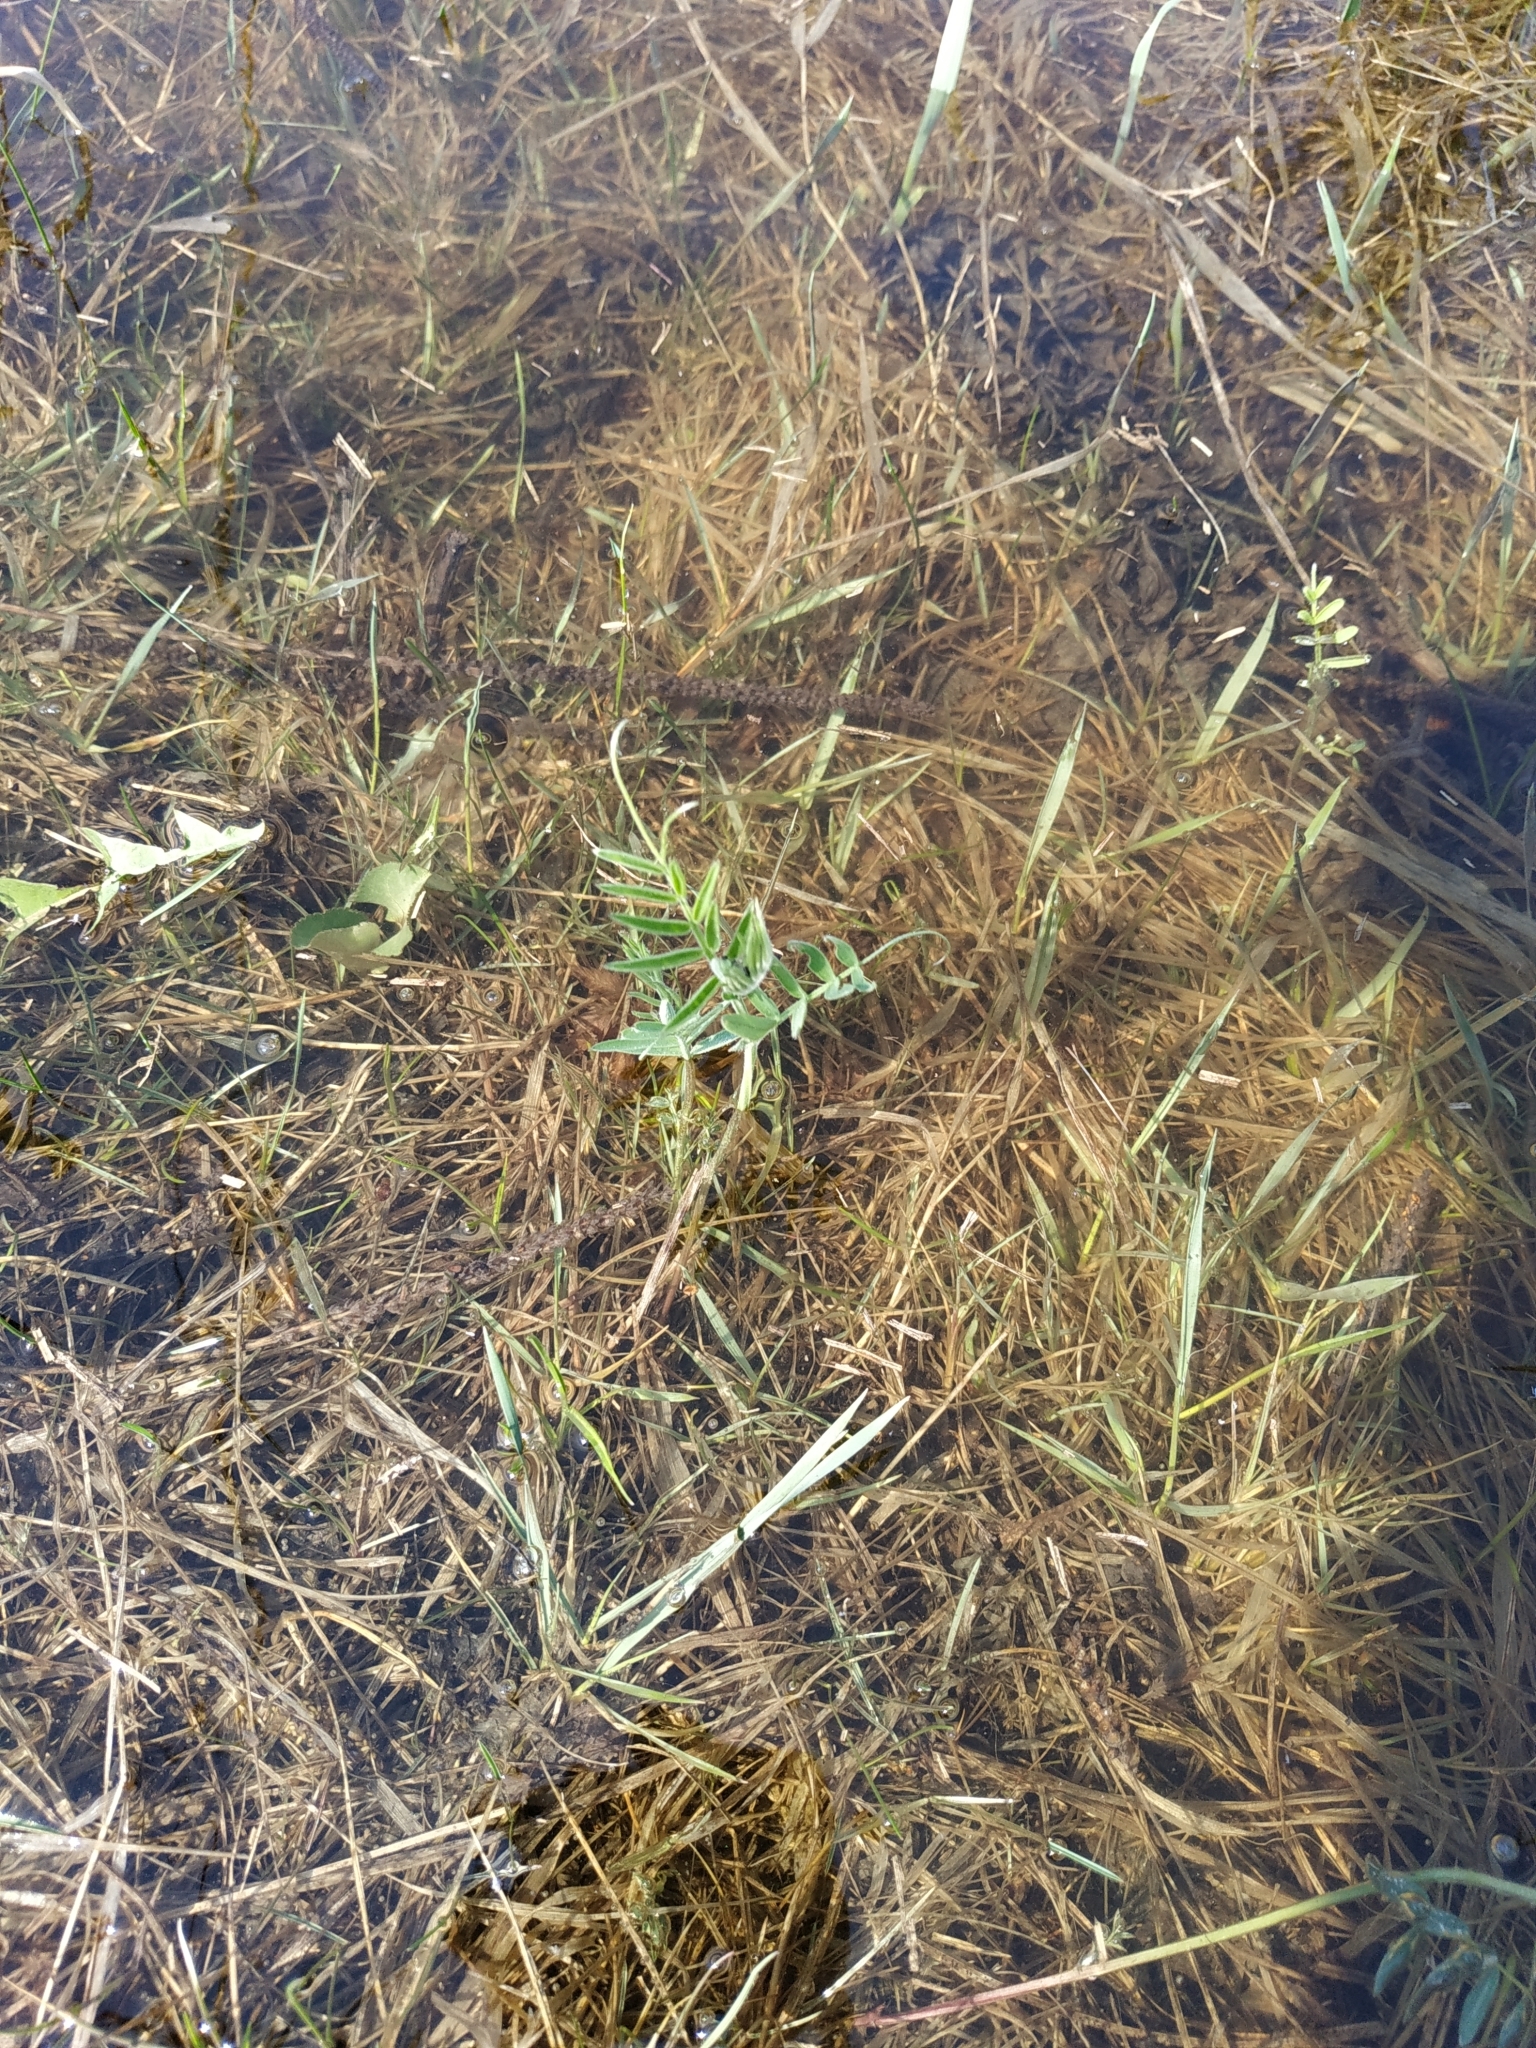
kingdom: Plantae
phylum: Tracheophyta
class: Magnoliopsida
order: Fabales
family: Fabaceae
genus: Vicia
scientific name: Vicia cracca
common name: Bird vetch
